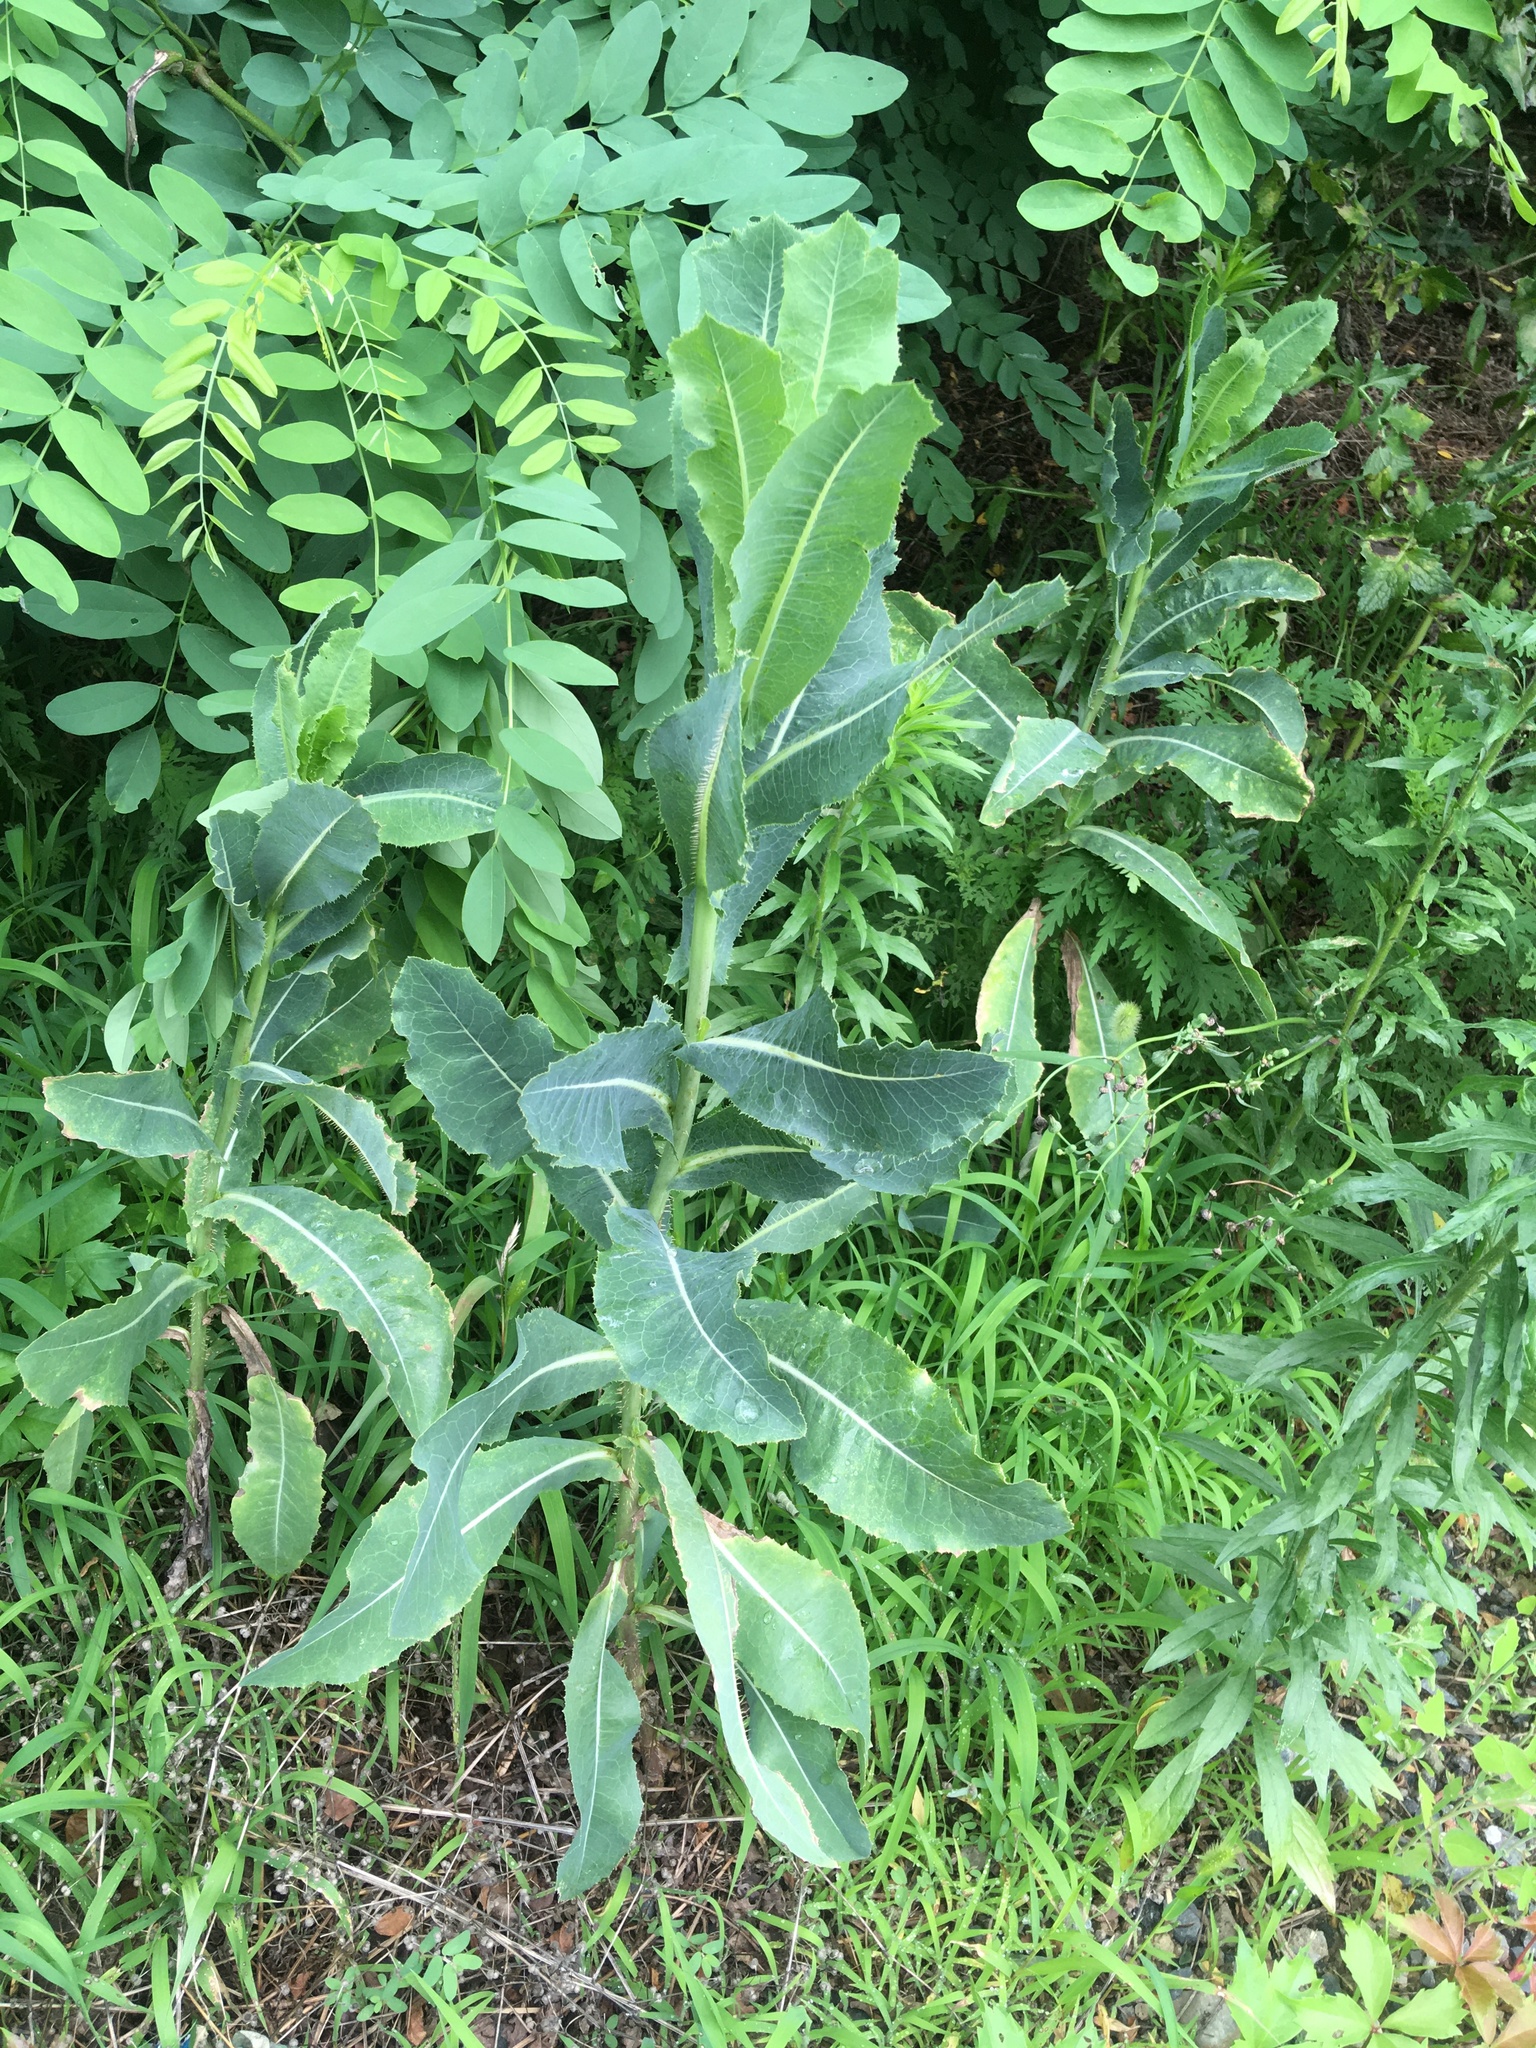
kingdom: Plantae
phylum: Tracheophyta
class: Magnoliopsida
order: Asterales
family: Asteraceae
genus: Lactuca
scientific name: Lactuca serriola
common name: Prickly lettuce
